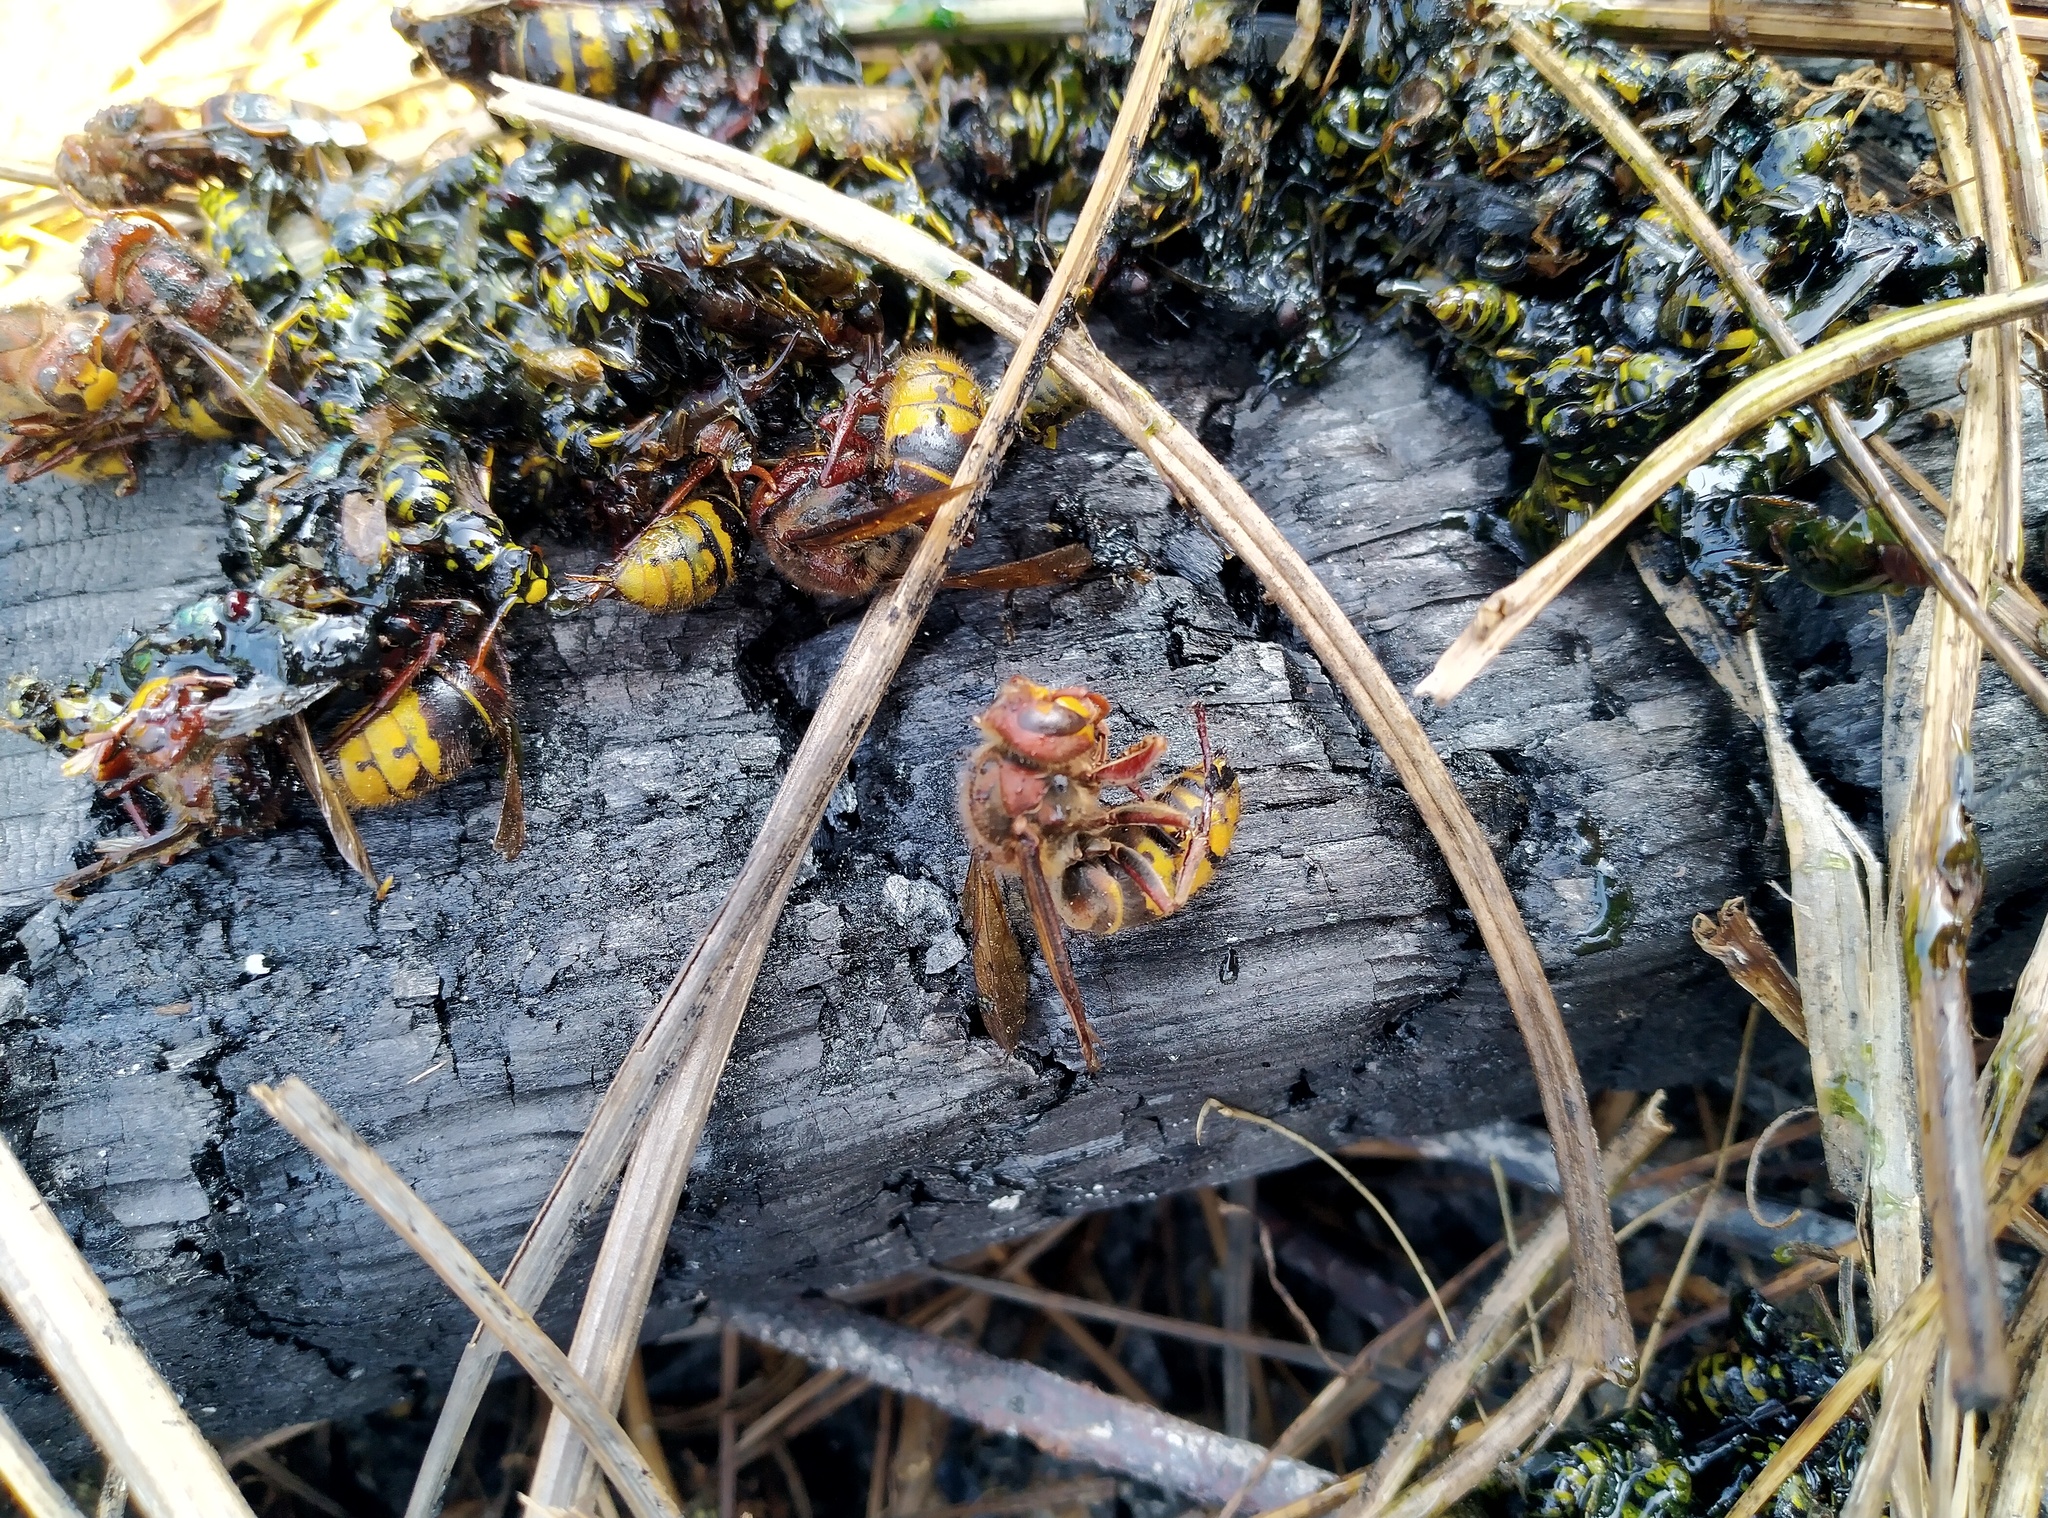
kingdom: Animalia
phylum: Arthropoda
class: Insecta
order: Hymenoptera
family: Vespidae
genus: Vespa
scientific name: Vespa crabro
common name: Hornet
